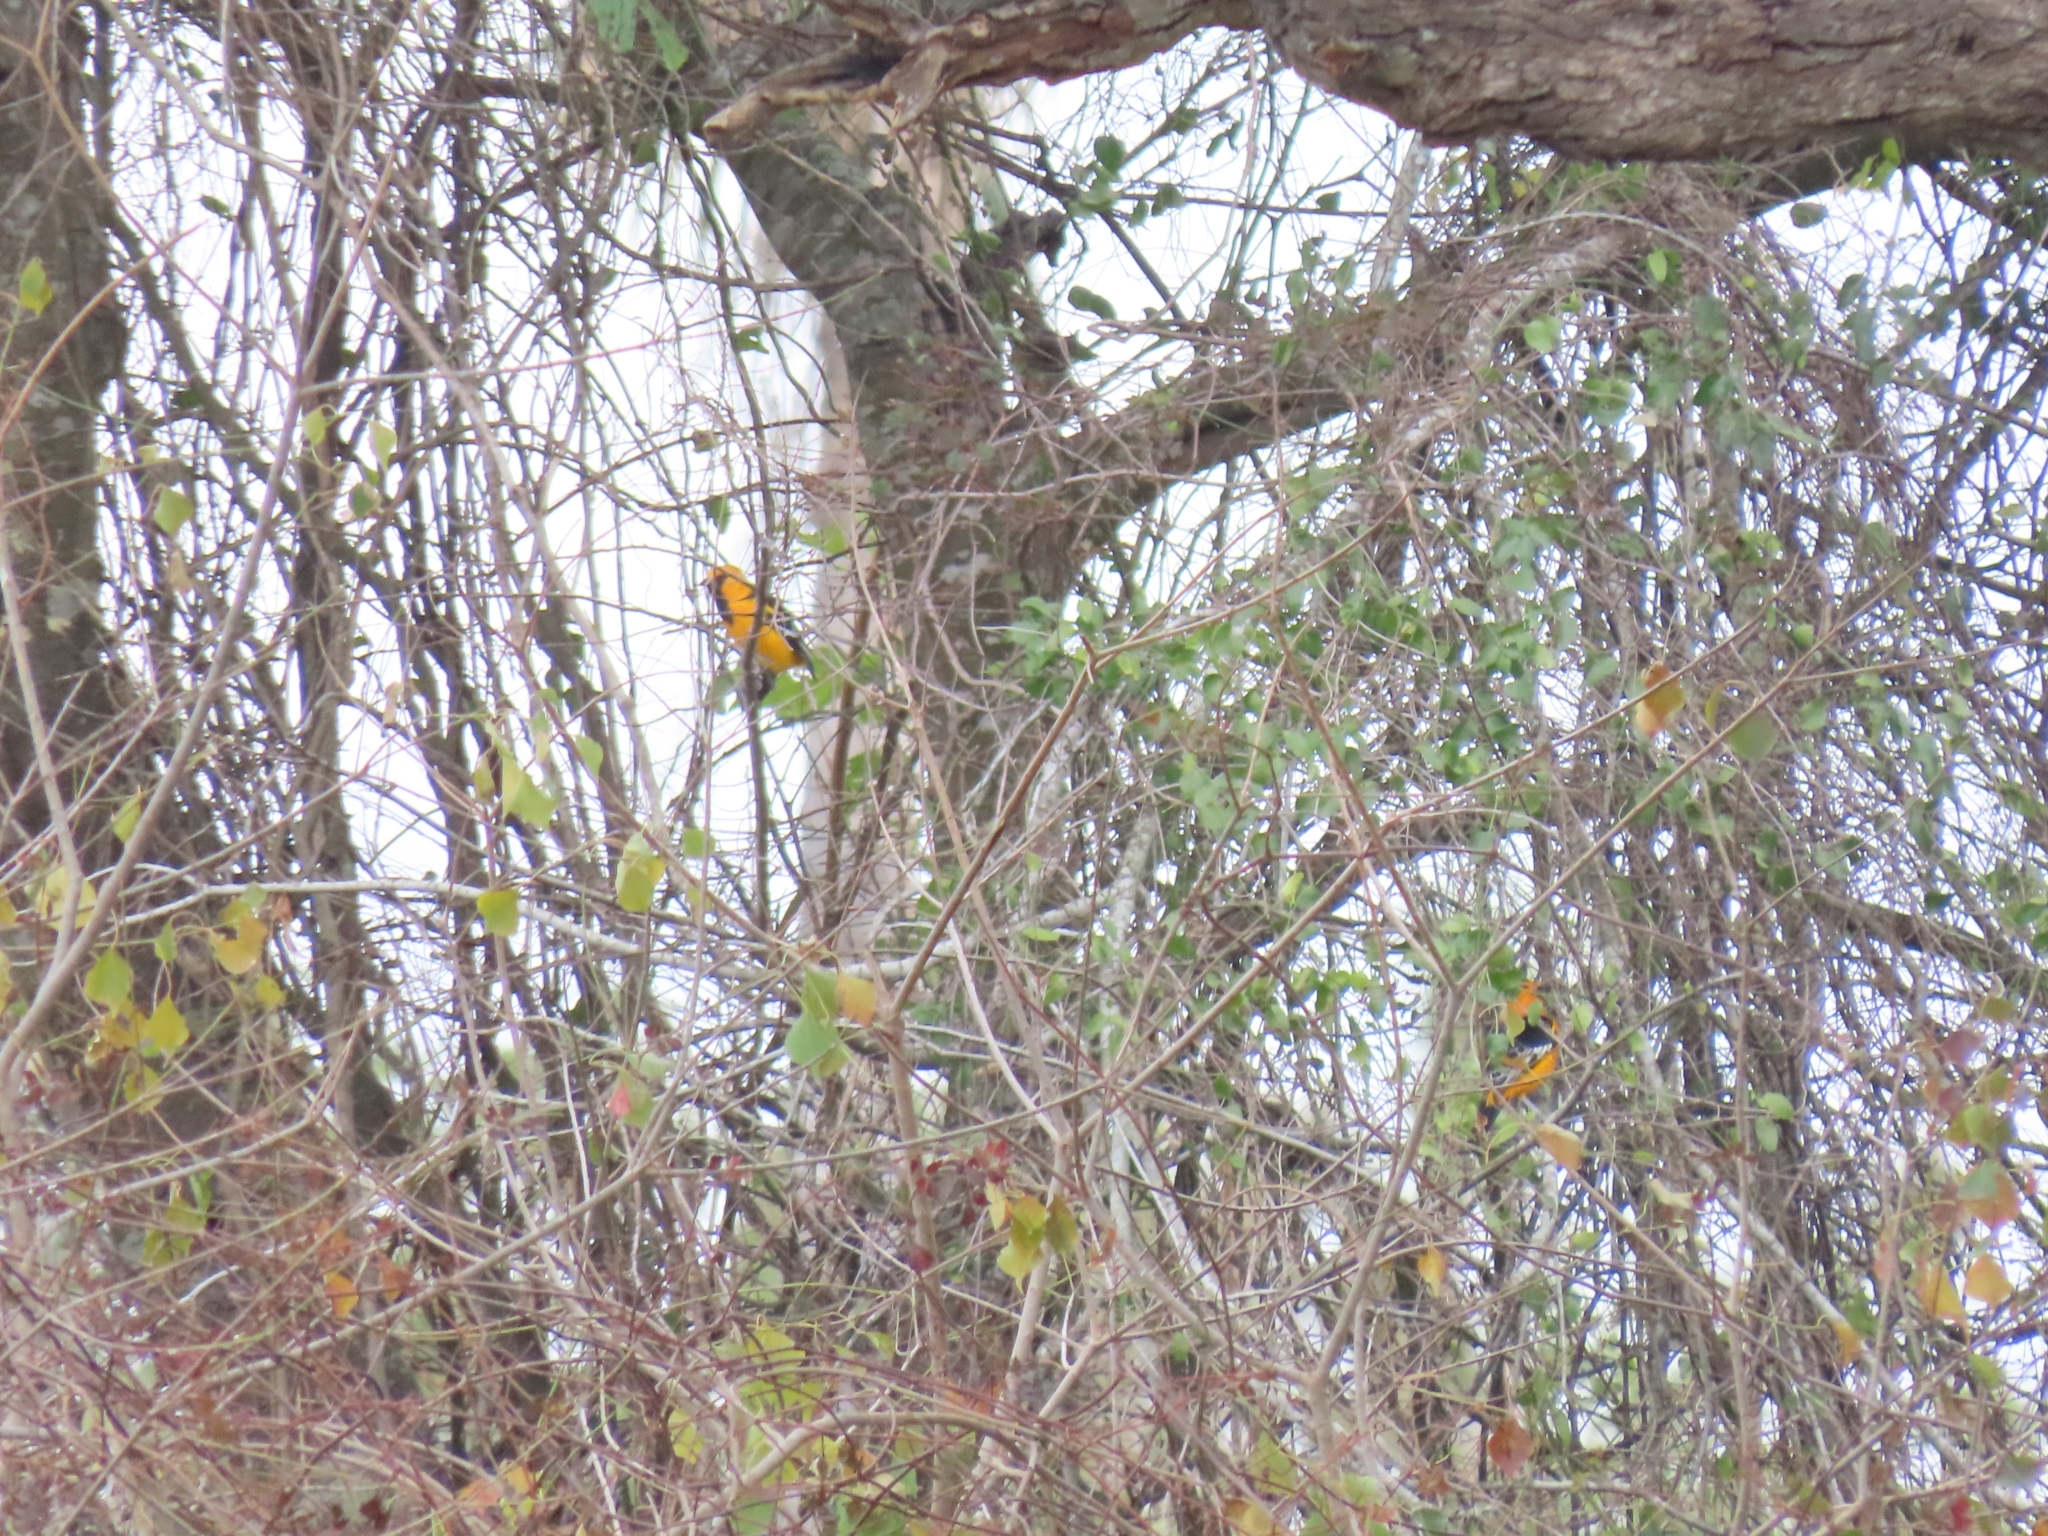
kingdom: Animalia
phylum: Chordata
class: Aves
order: Passeriformes
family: Icteridae
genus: Icterus
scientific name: Icterus gularis
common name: Altamira oriole
